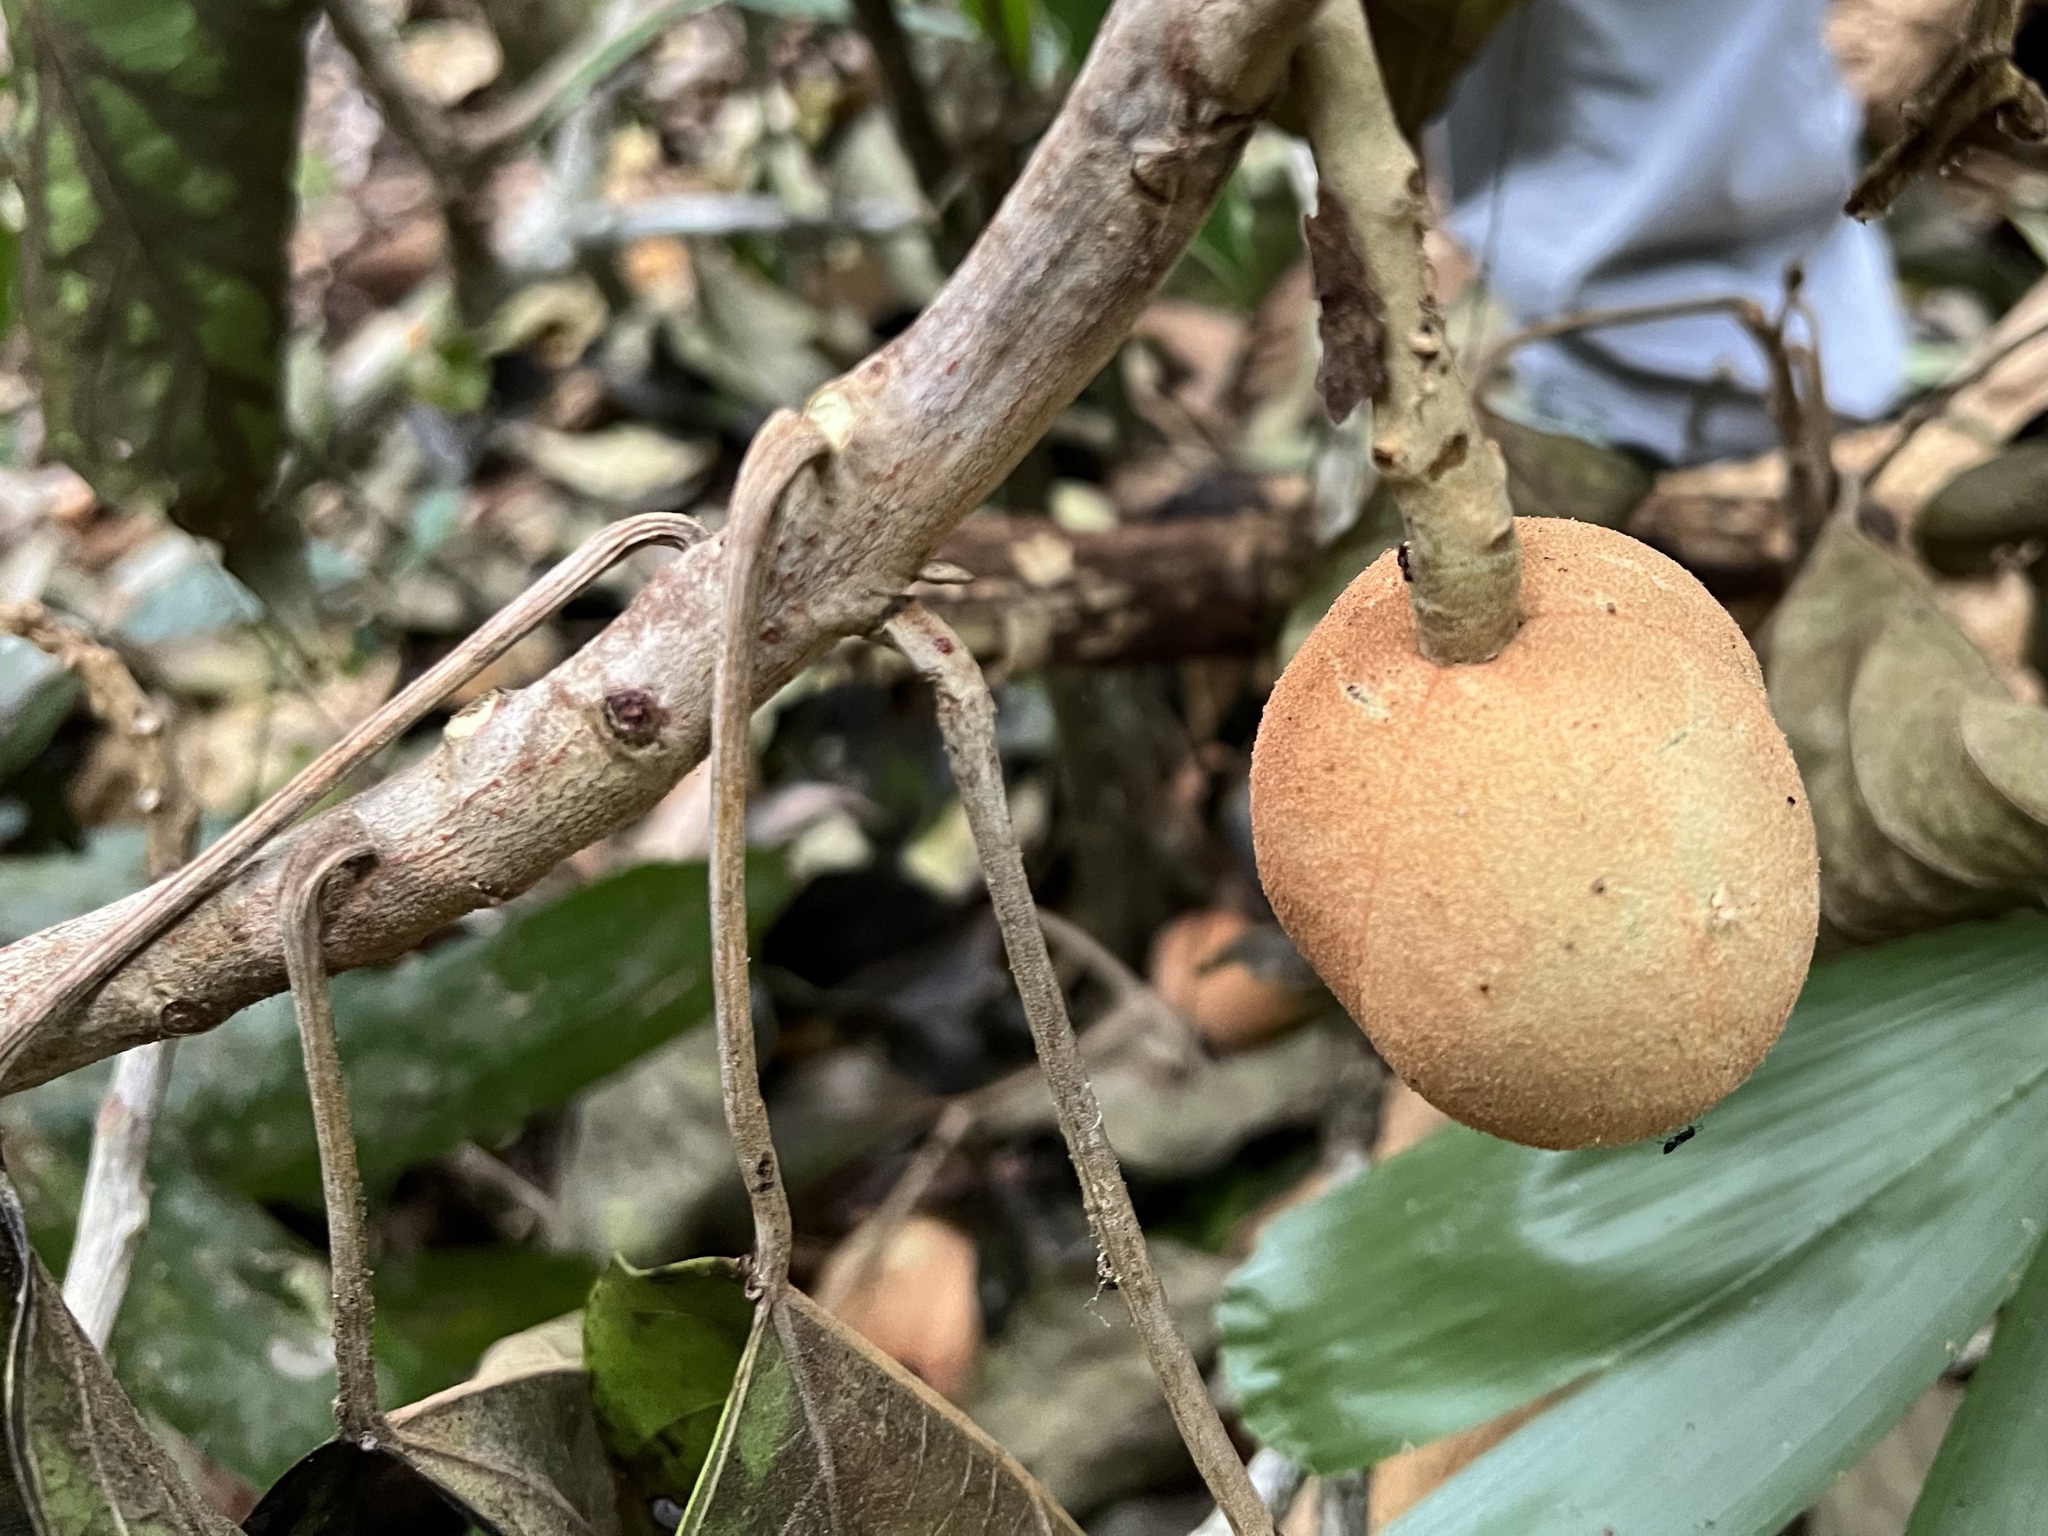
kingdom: Plantae
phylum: Tracheophyta
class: Magnoliopsida
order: Malpighiales
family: Euphorbiaceae
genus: Aleurites
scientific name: Aleurites rockinghamensis
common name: Candelnut
